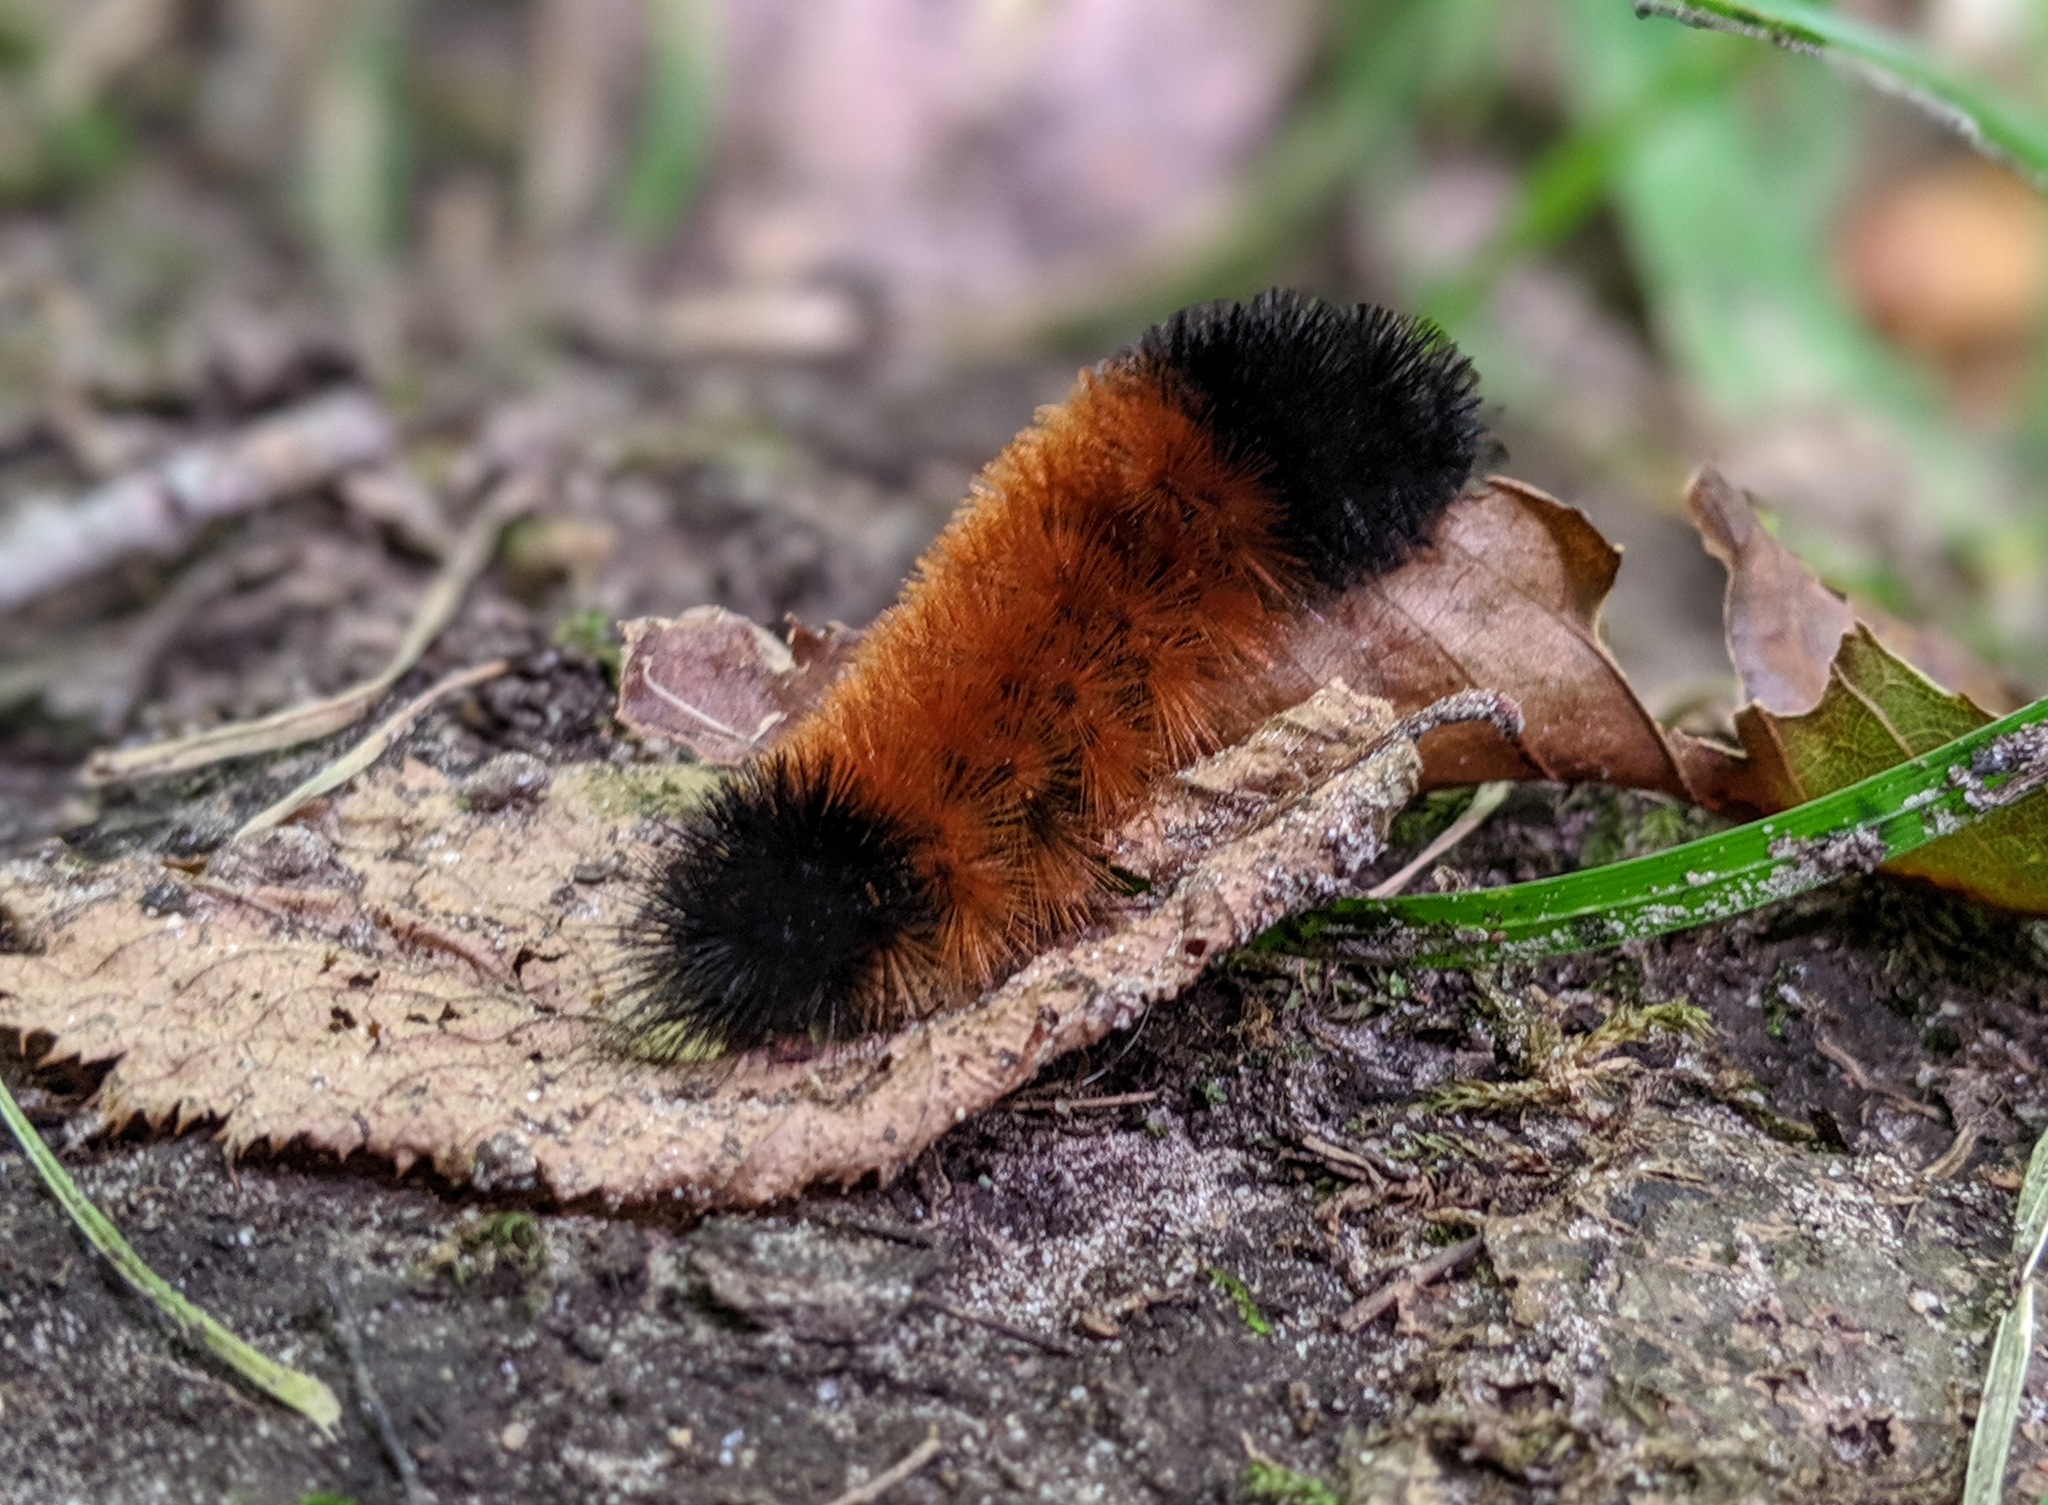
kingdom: Animalia
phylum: Arthropoda
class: Insecta
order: Lepidoptera
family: Erebidae
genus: Pyrrharctia
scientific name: Pyrrharctia isabella
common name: Isabella tiger moth
